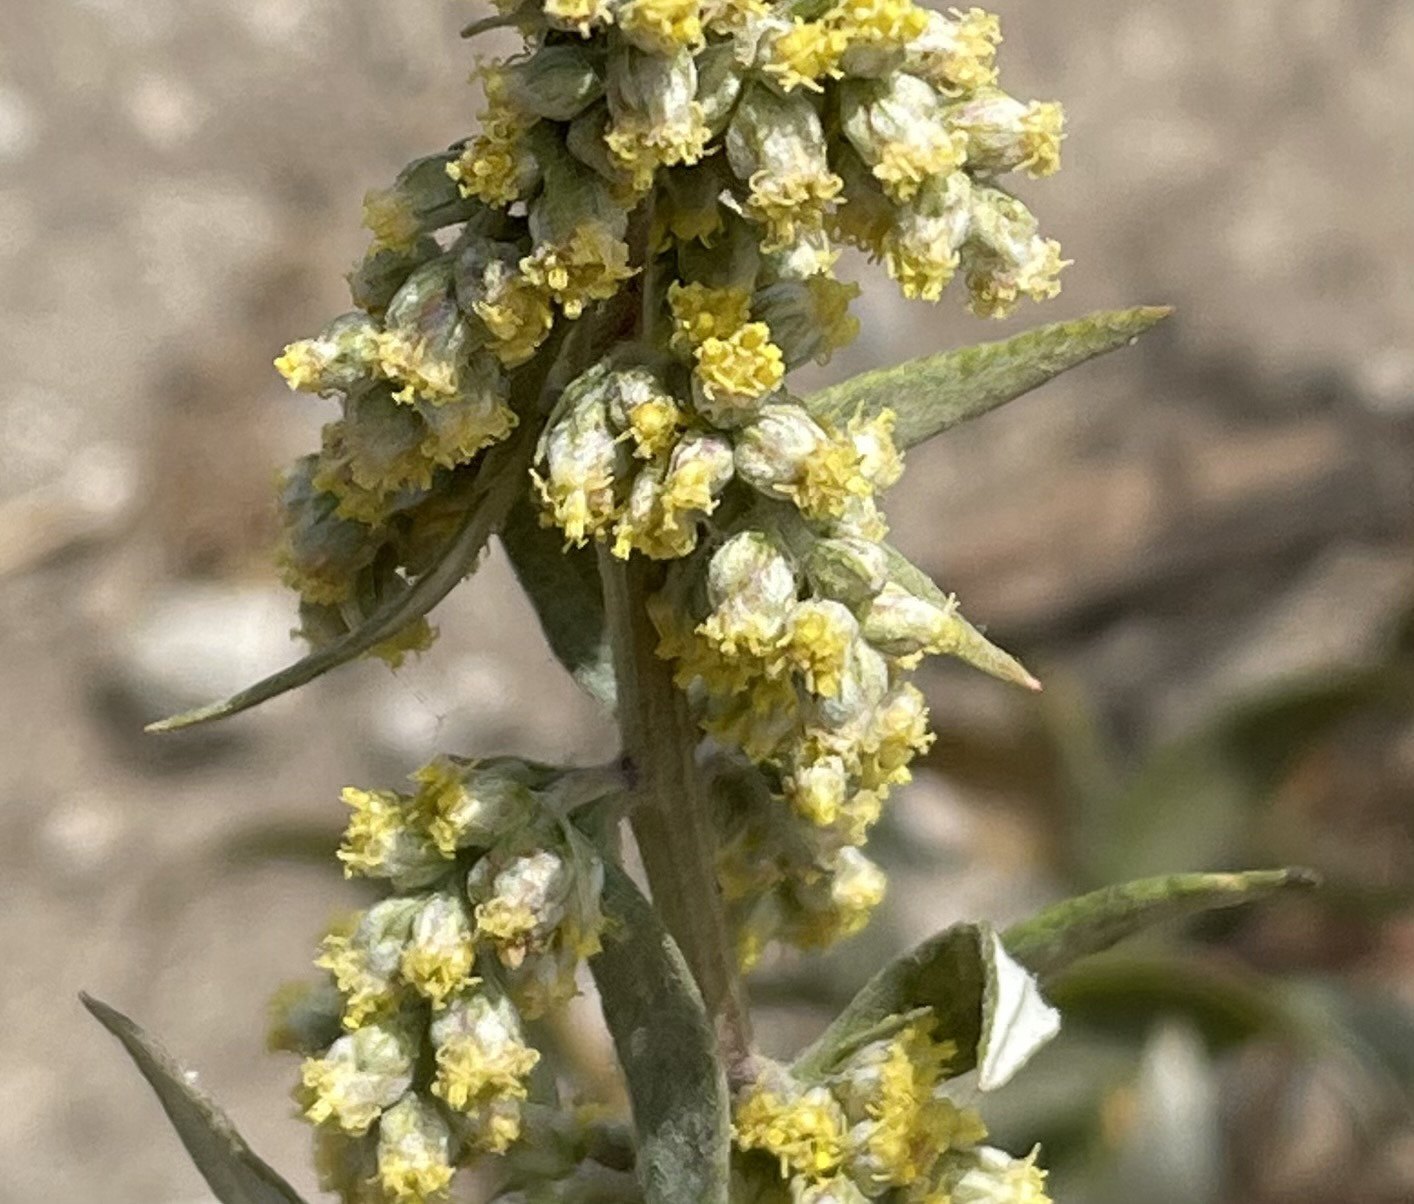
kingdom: Plantae
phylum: Tracheophyta
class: Magnoliopsida
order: Asterales
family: Asteraceae
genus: Artemisia
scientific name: Artemisia douglasiana
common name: Northwest mugwort
